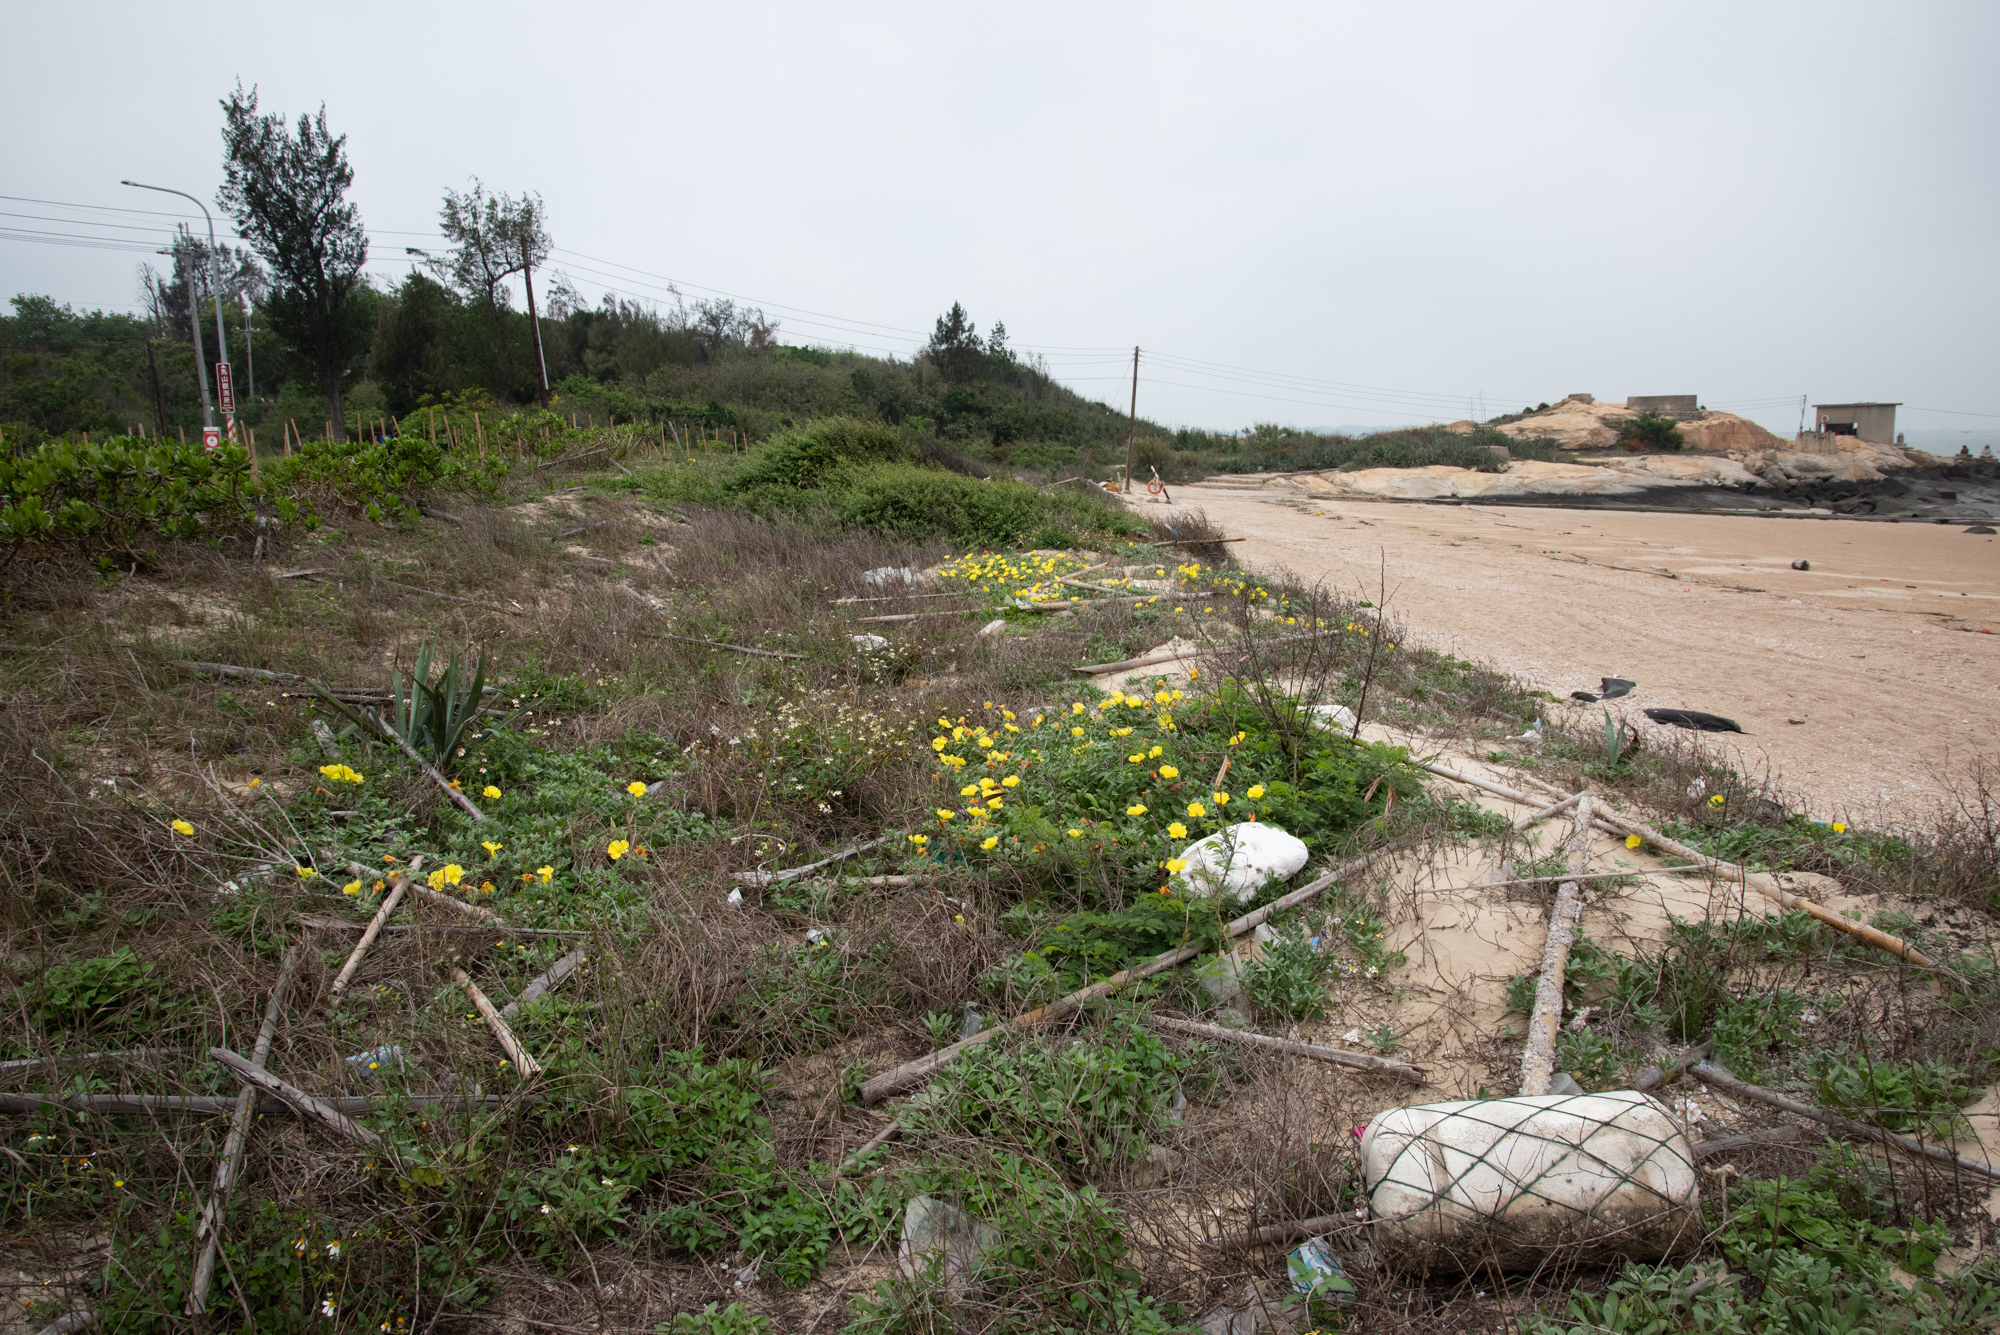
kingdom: Plantae
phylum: Tracheophyta
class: Magnoliopsida
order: Myrtales
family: Onagraceae
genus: Oenothera
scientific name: Oenothera drummondii
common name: Beach evening-primrose
